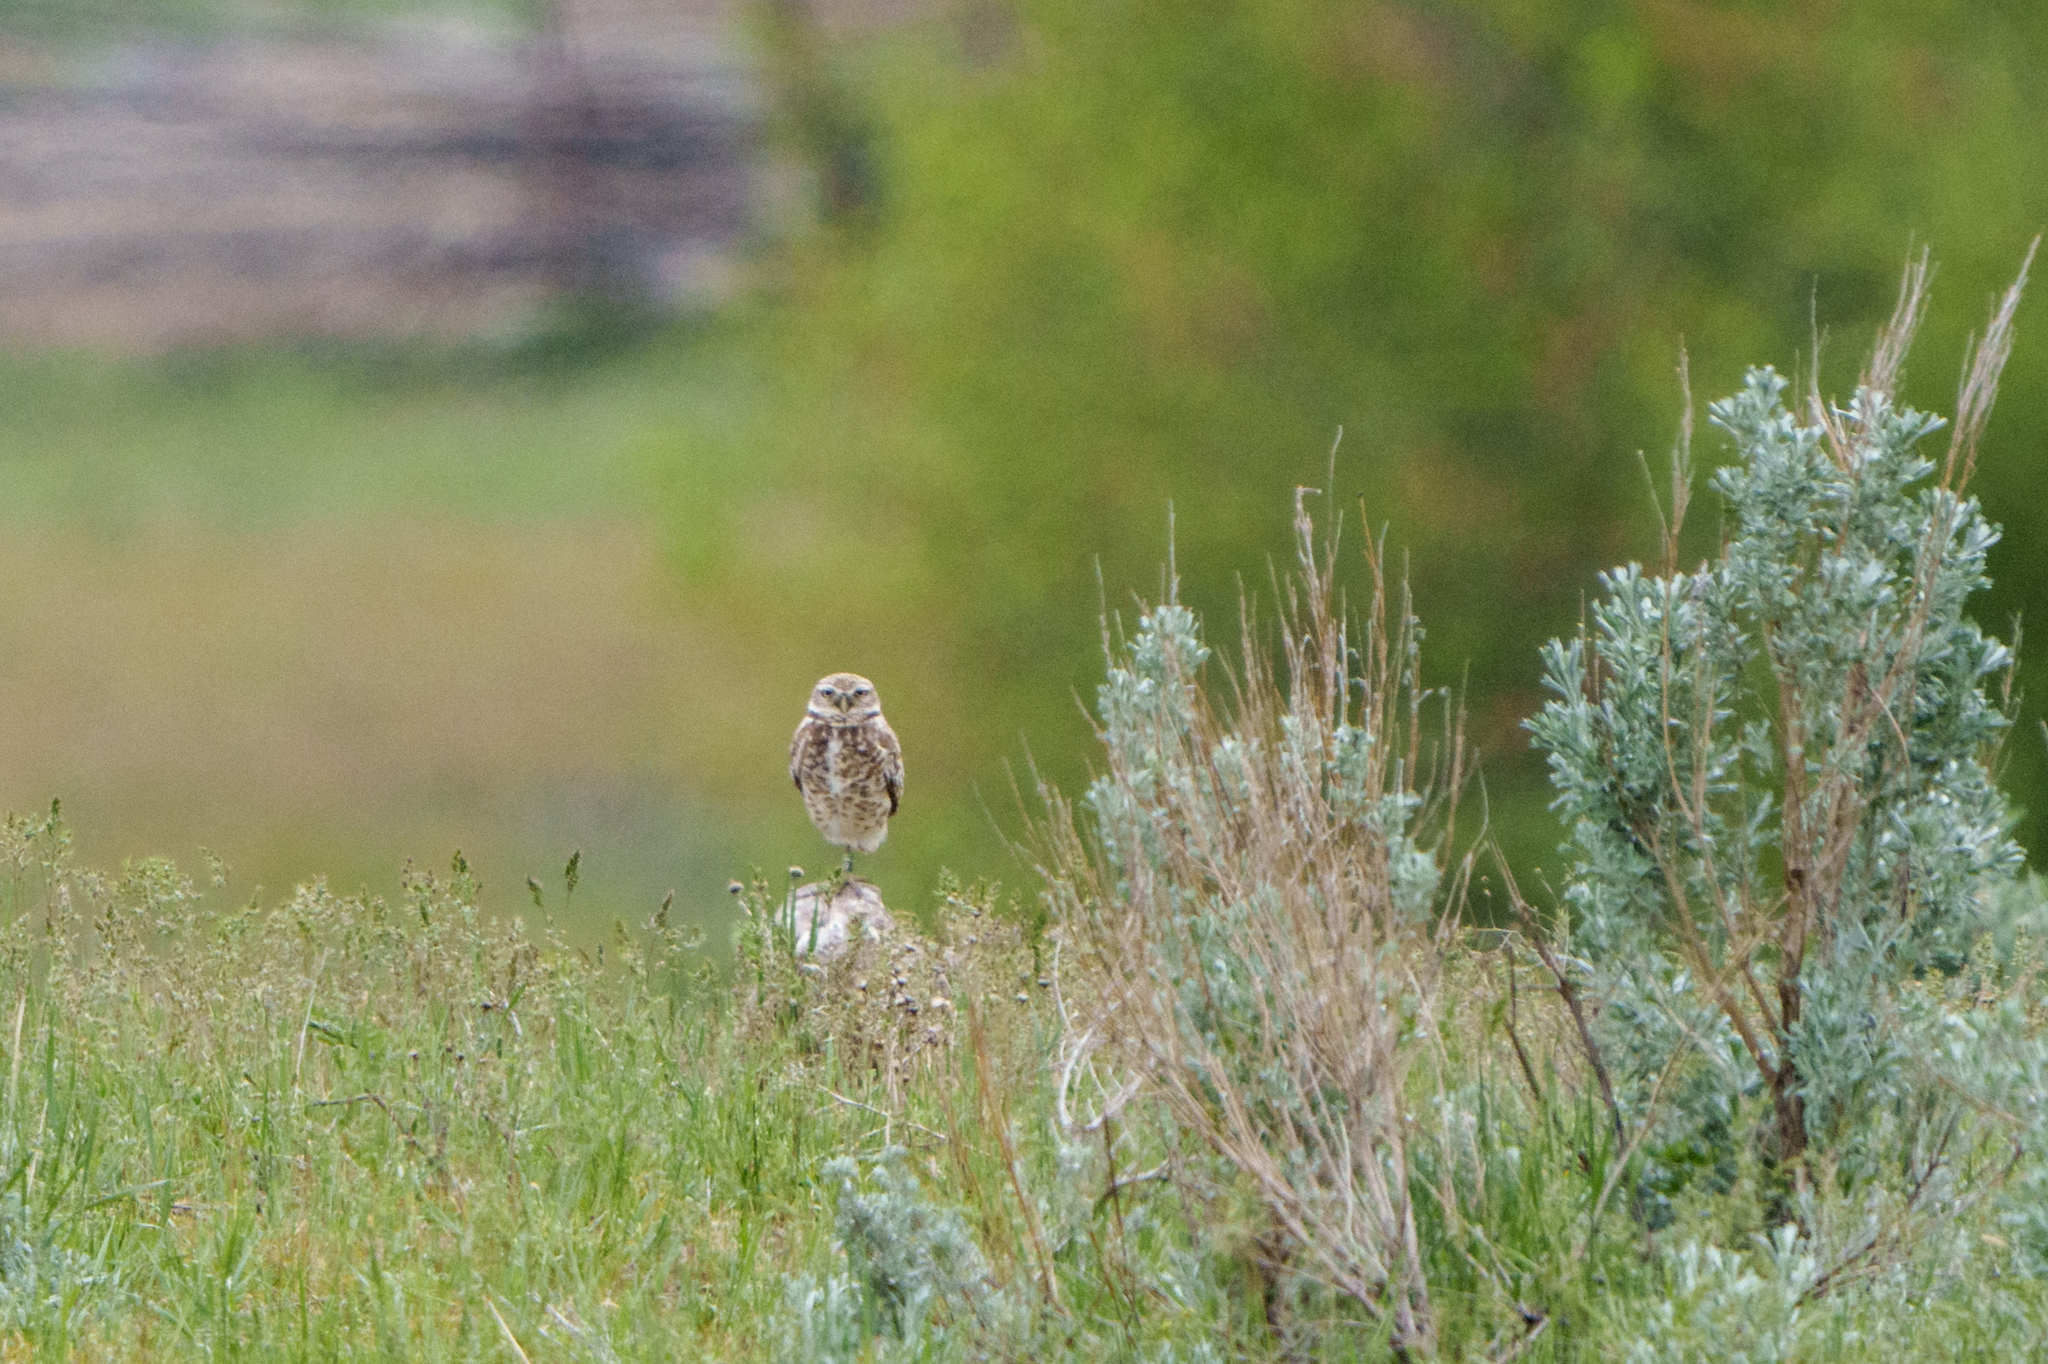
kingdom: Animalia
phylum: Chordata
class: Aves
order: Strigiformes
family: Strigidae
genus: Athene
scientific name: Athene cunicularia
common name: Burrowing owl
